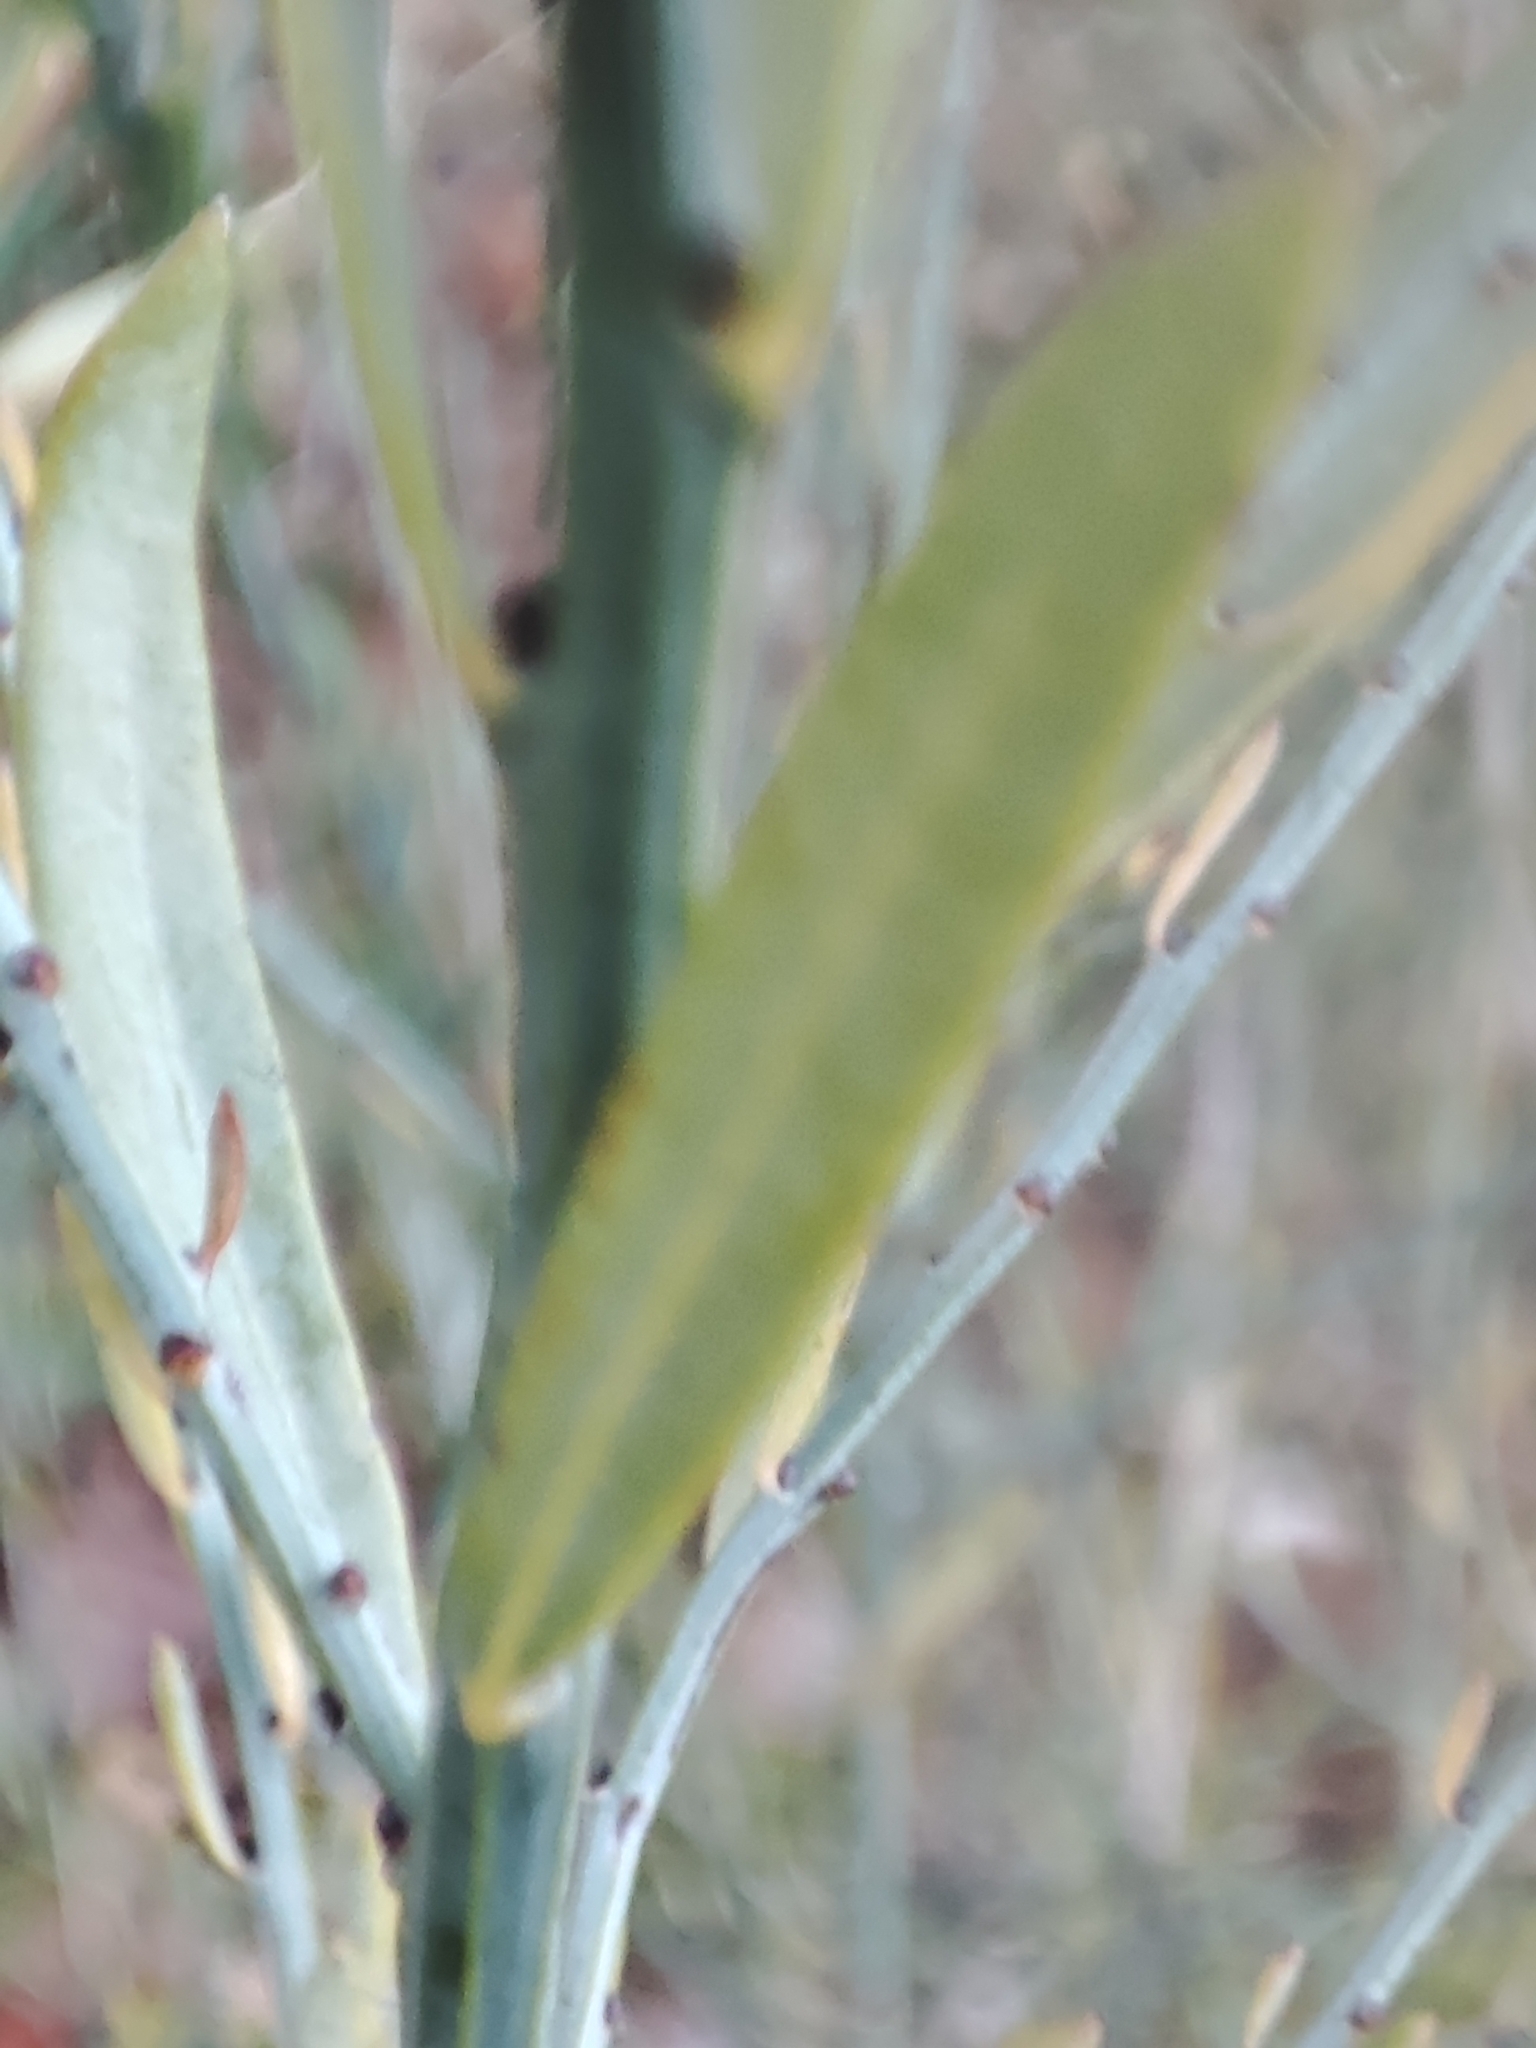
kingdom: Plantae
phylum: Tracheophyta
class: Magnoliopsida
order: Santalales
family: Santalaceae
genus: Osyris
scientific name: Osyris alba
